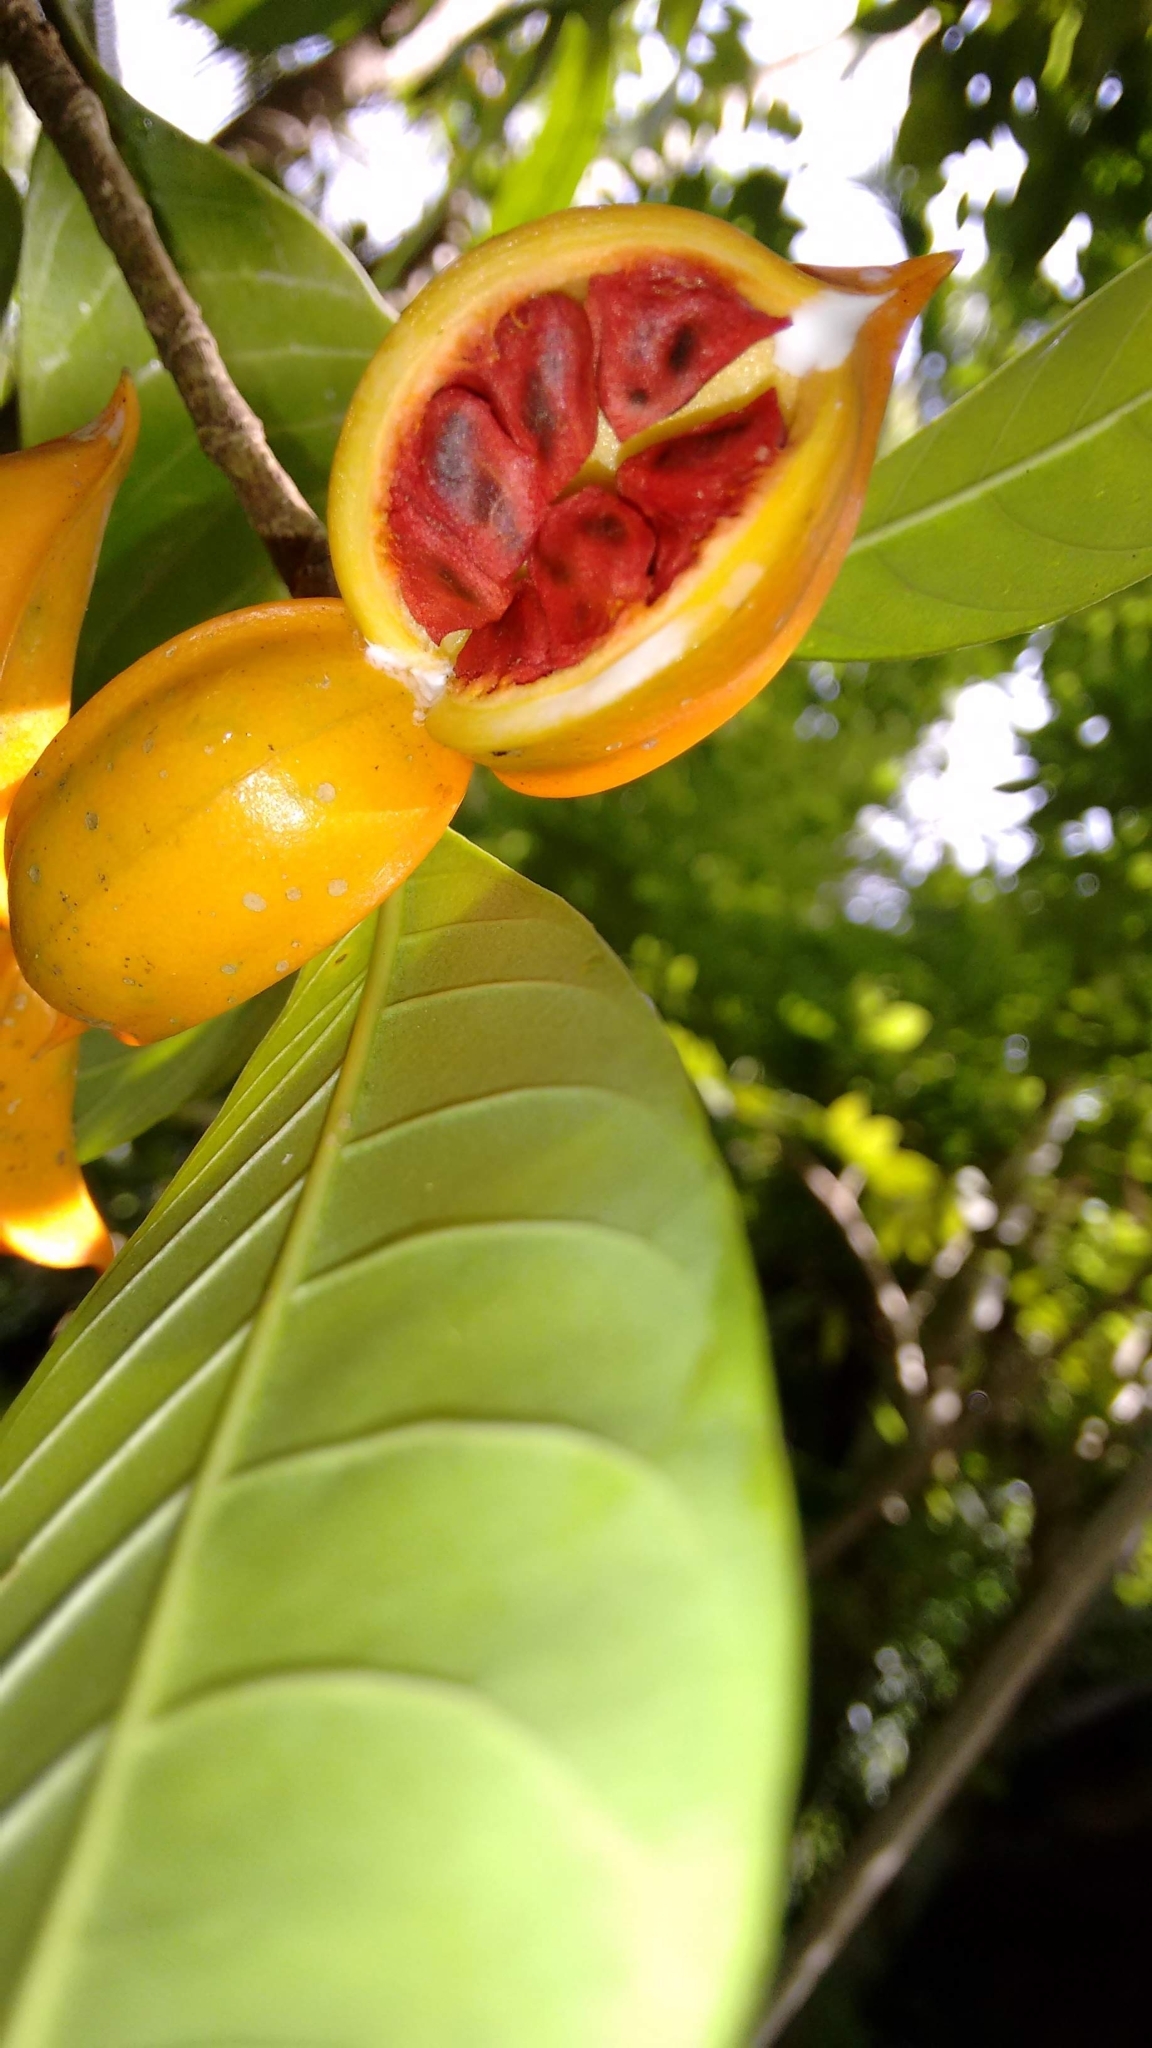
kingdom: Plantae
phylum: Tracheophyta
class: Magnoliopsida
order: Gentianales
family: Apocynaceae
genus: Tabernaemontana
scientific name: Tabernaemontana alternifolia
